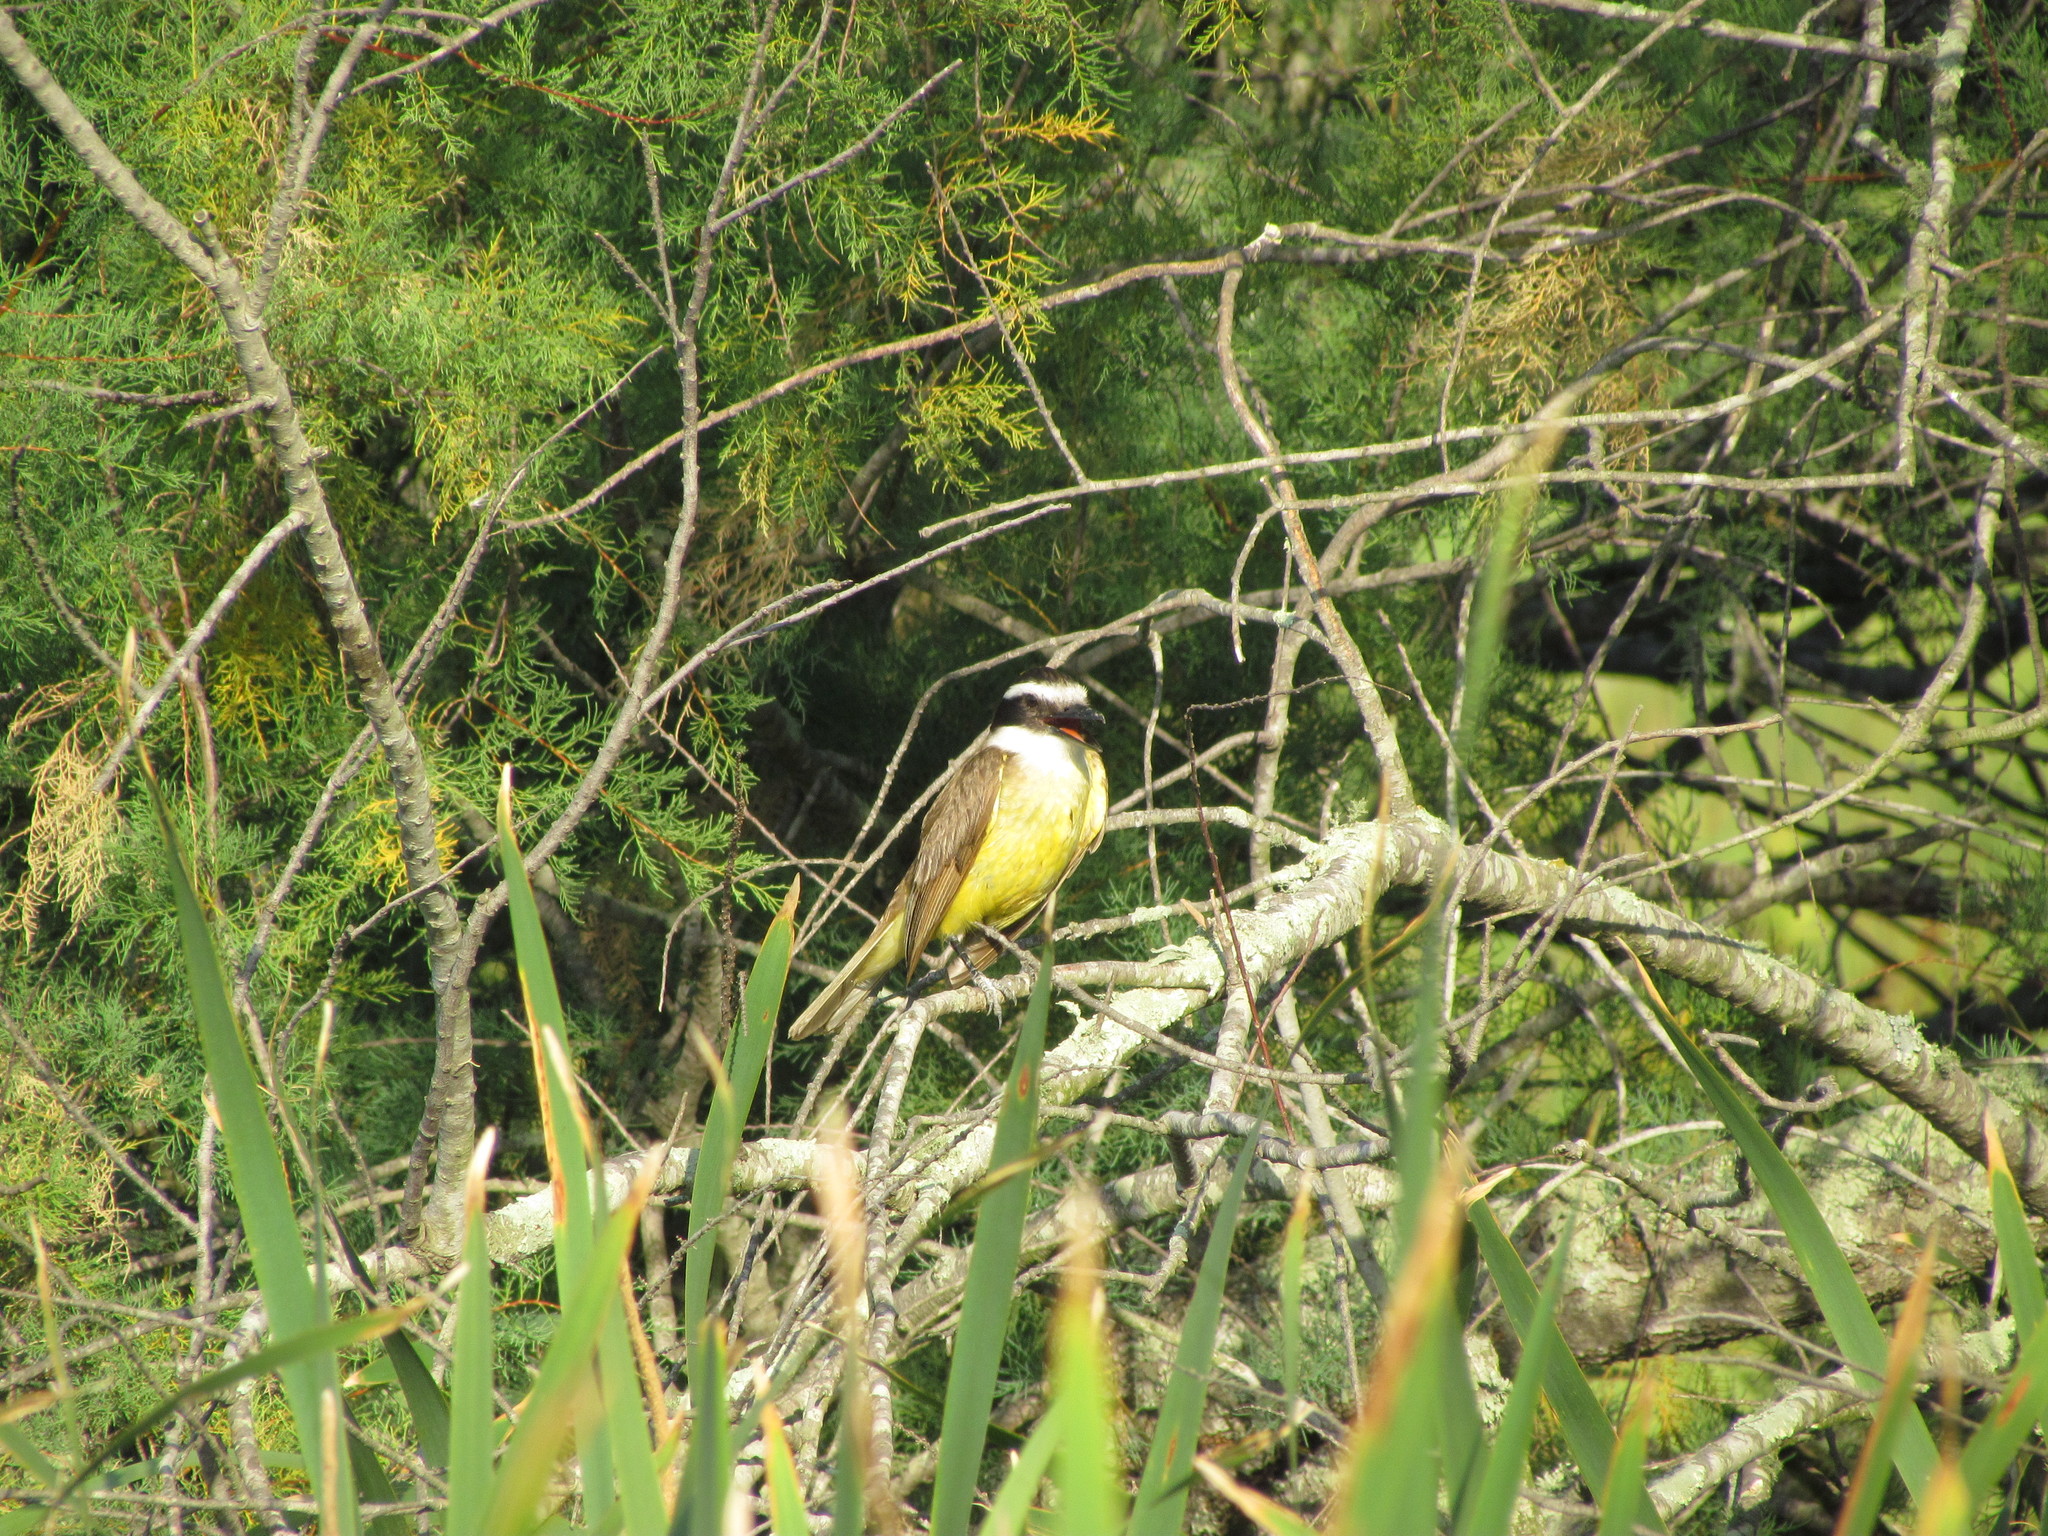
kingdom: Animalia
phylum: Chordata
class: Aves
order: Passeriformes
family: Tyrannidae
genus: Pitangus
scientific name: Pitangus sulphuratus
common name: Great kiskadee
